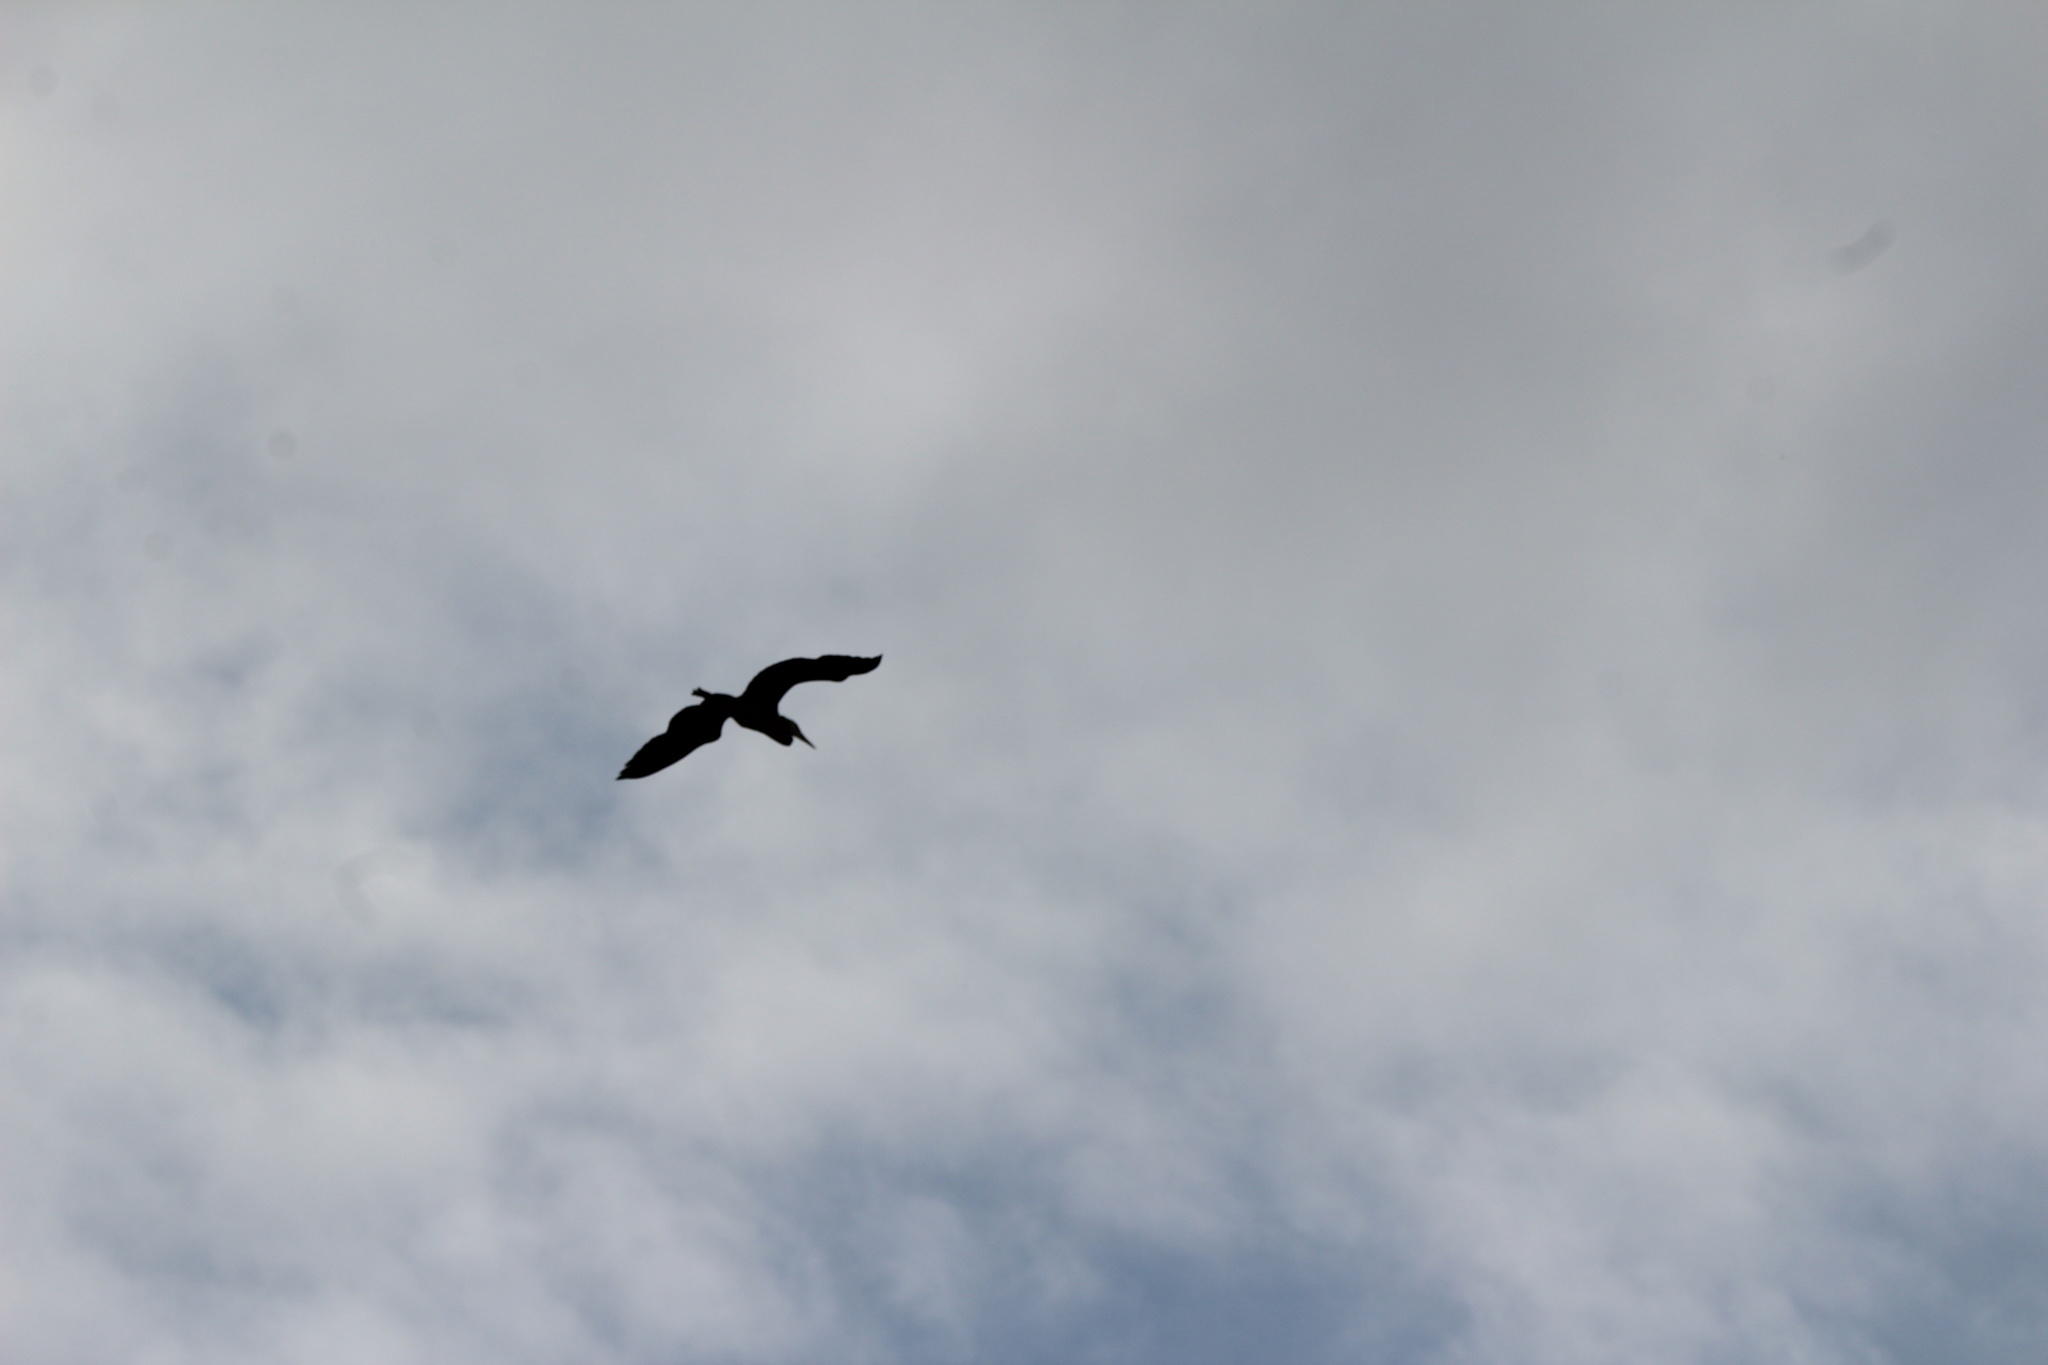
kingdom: Animalia
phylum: Chordata
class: Aves
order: Pelecaniformes
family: Ardeidae
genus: Ardea
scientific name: Ardea herodias
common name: Great blue heron
